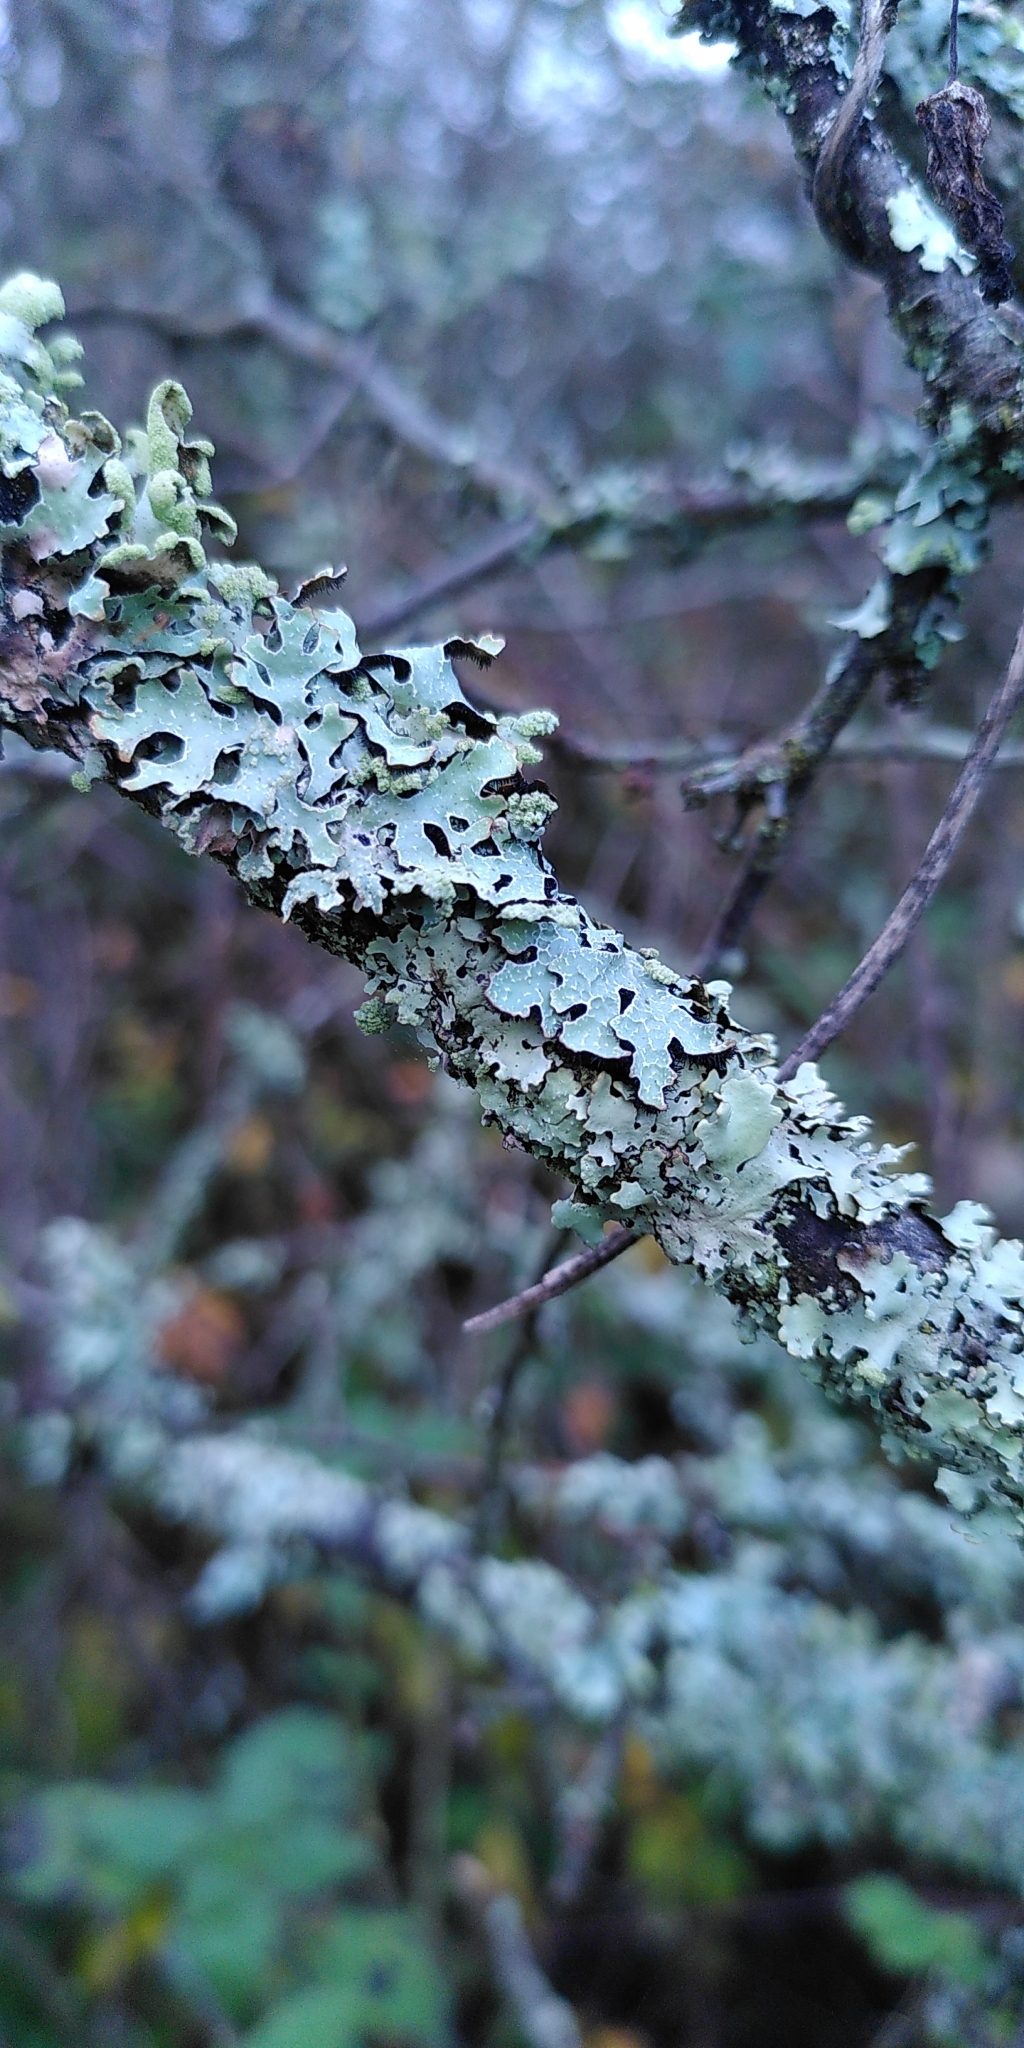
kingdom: Fungi
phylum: Ascomycota
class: Lecanoromycetes
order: Lecanorales
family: Parmeliaceae
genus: Parmelia
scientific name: Parmelia sulcata
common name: Netted shield lichen
